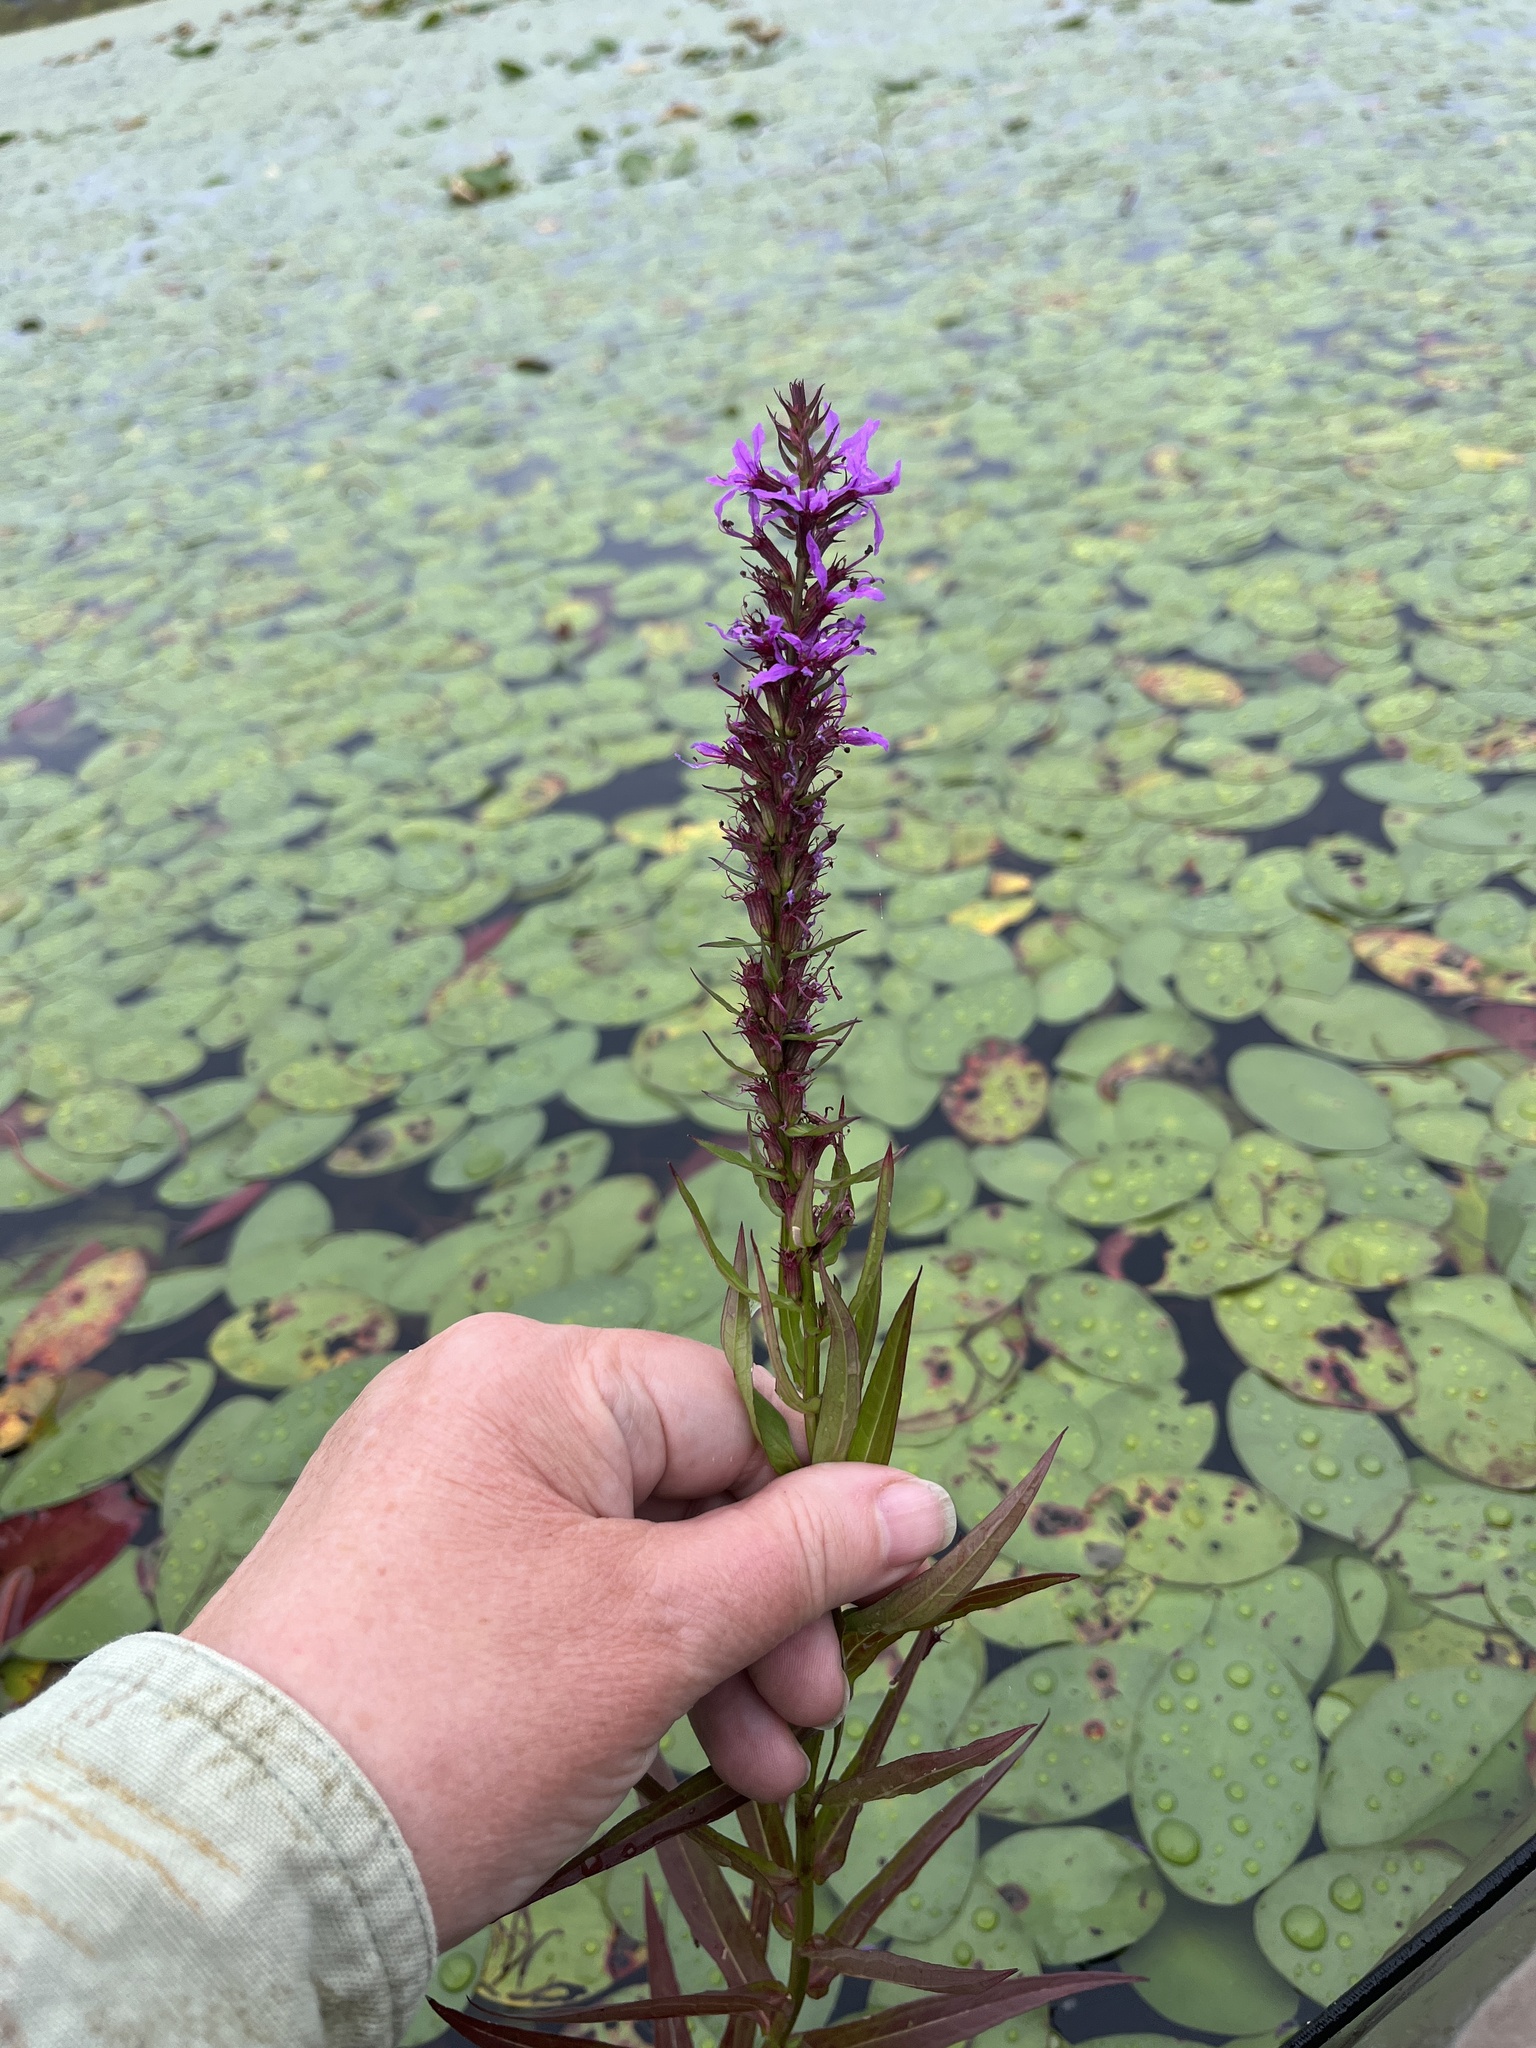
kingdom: Plantae
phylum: Tracheophyta
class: Magnoliopsida
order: Myrtales
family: Lythraceae
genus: Lythrum
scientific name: Lythrum salicaria
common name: Purple loosestrife
